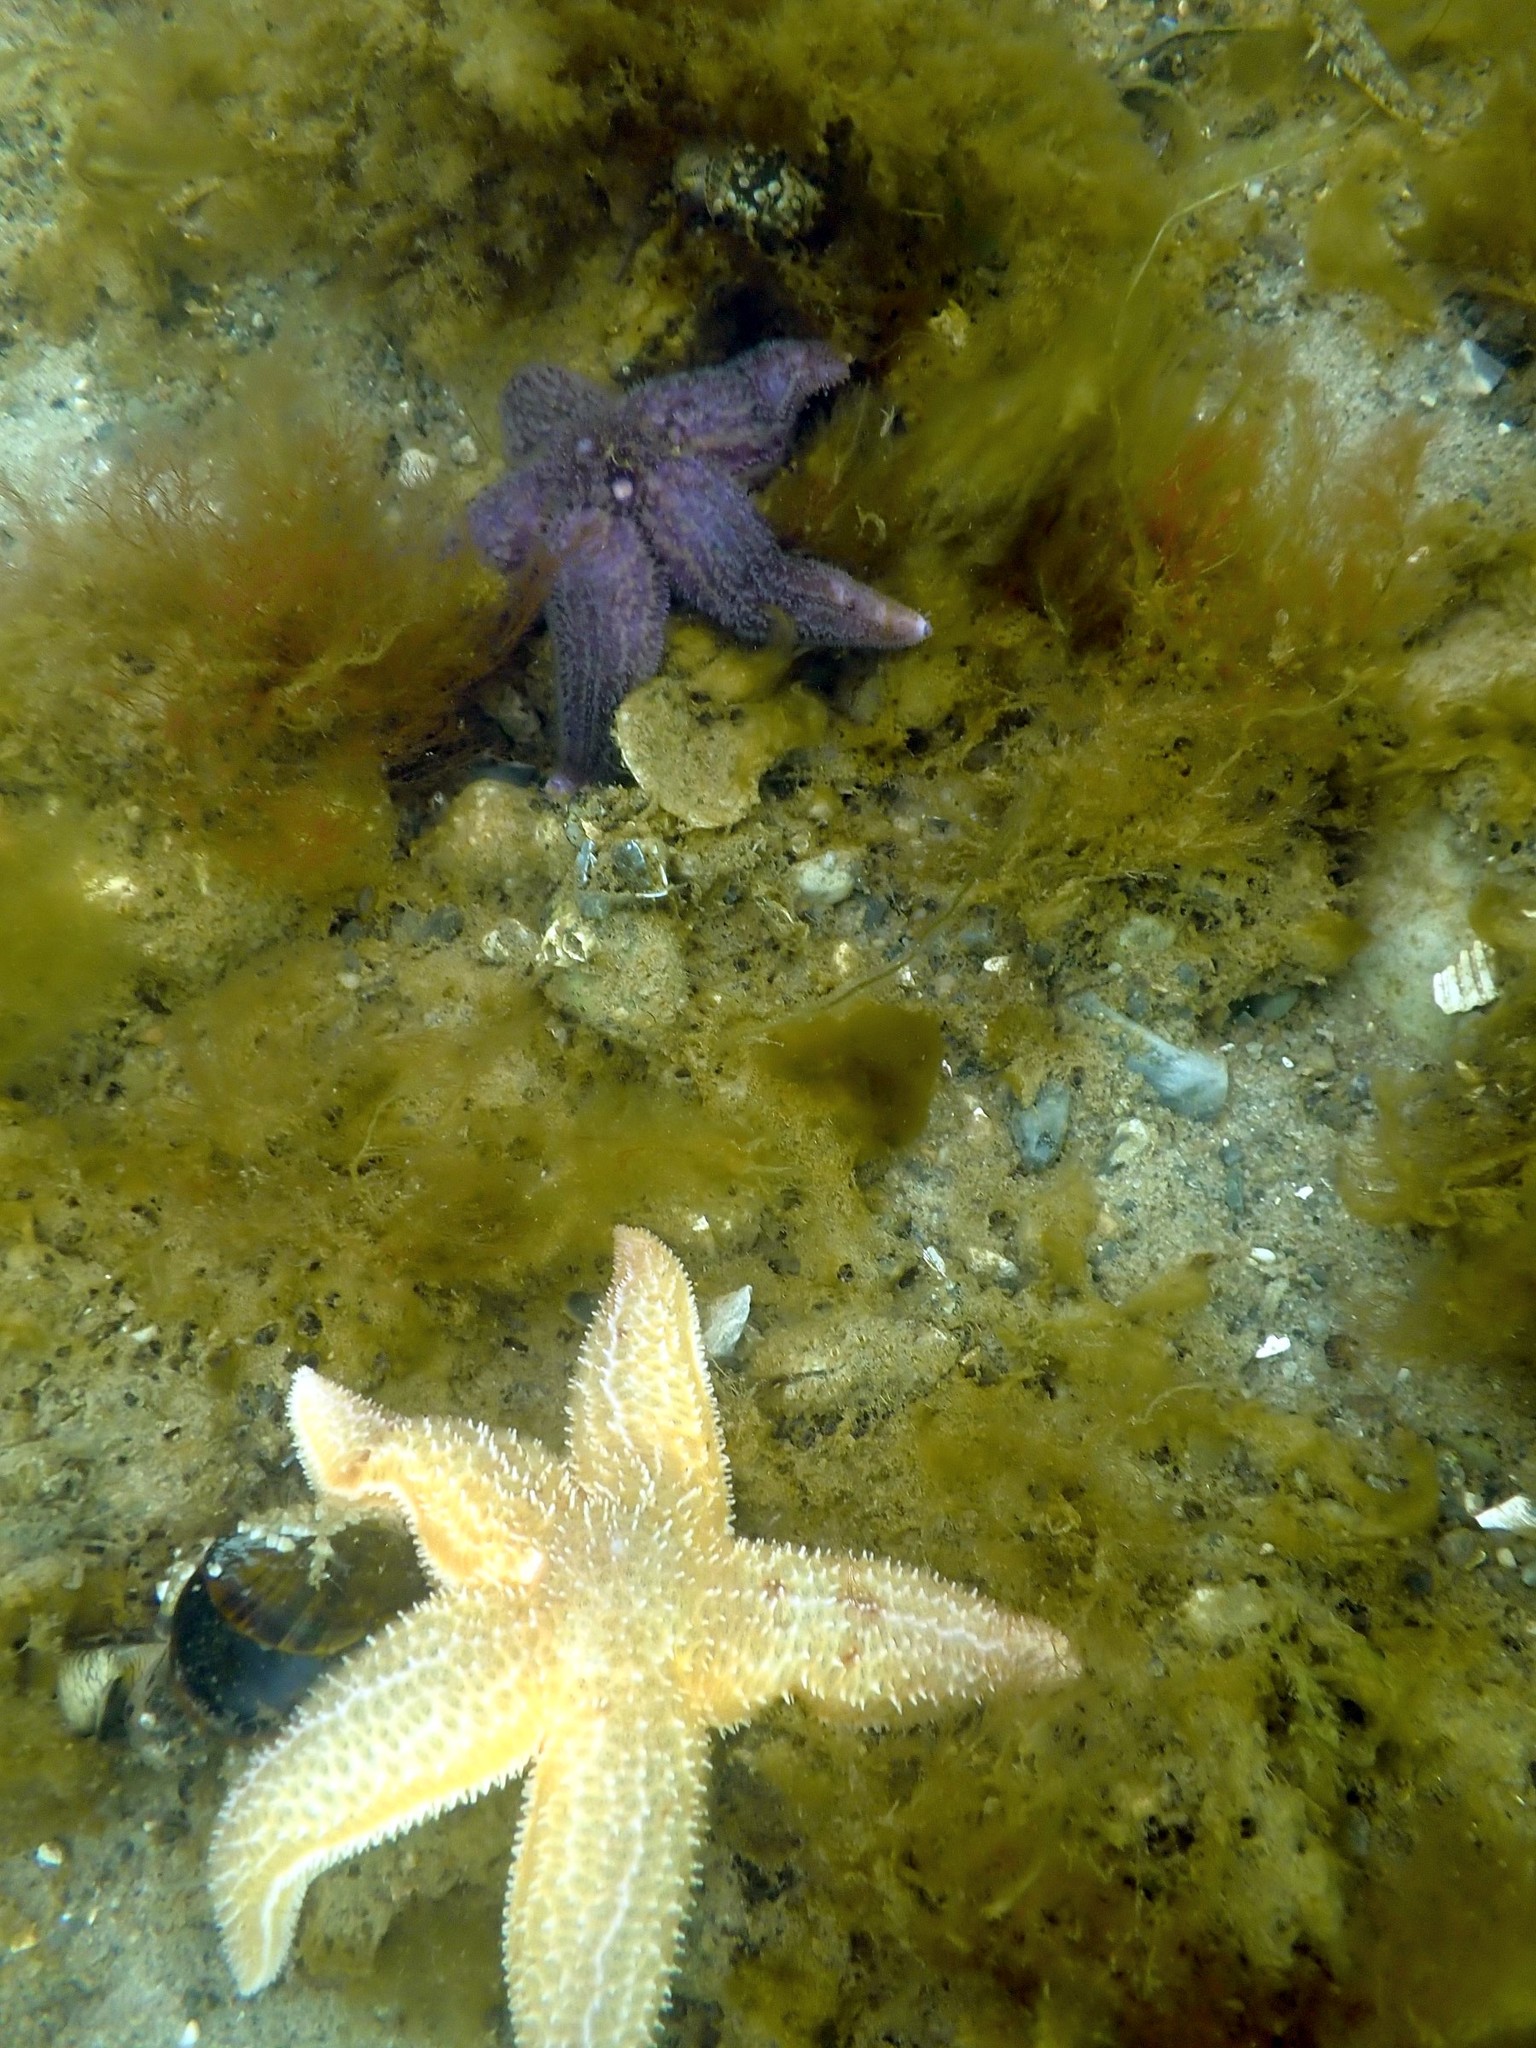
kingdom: Animalia
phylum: Echinodermata
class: Asteroidea
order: Forcipulatida
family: Asteriidae
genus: Asterias
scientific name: Asterias rubens
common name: Common starfish
